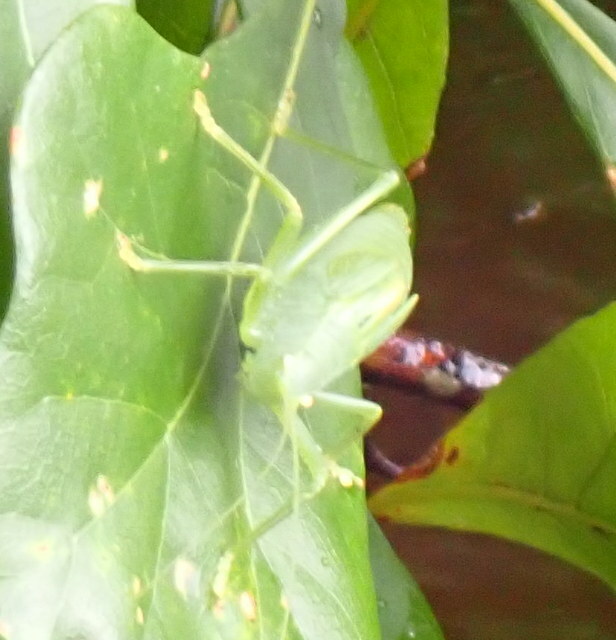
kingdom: Animalia
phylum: Arthropoda
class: Insecta
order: Orthoptera
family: Tettigoniidae
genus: Pterophylla
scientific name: Pterophylla camellifolia
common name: Common true katydid
